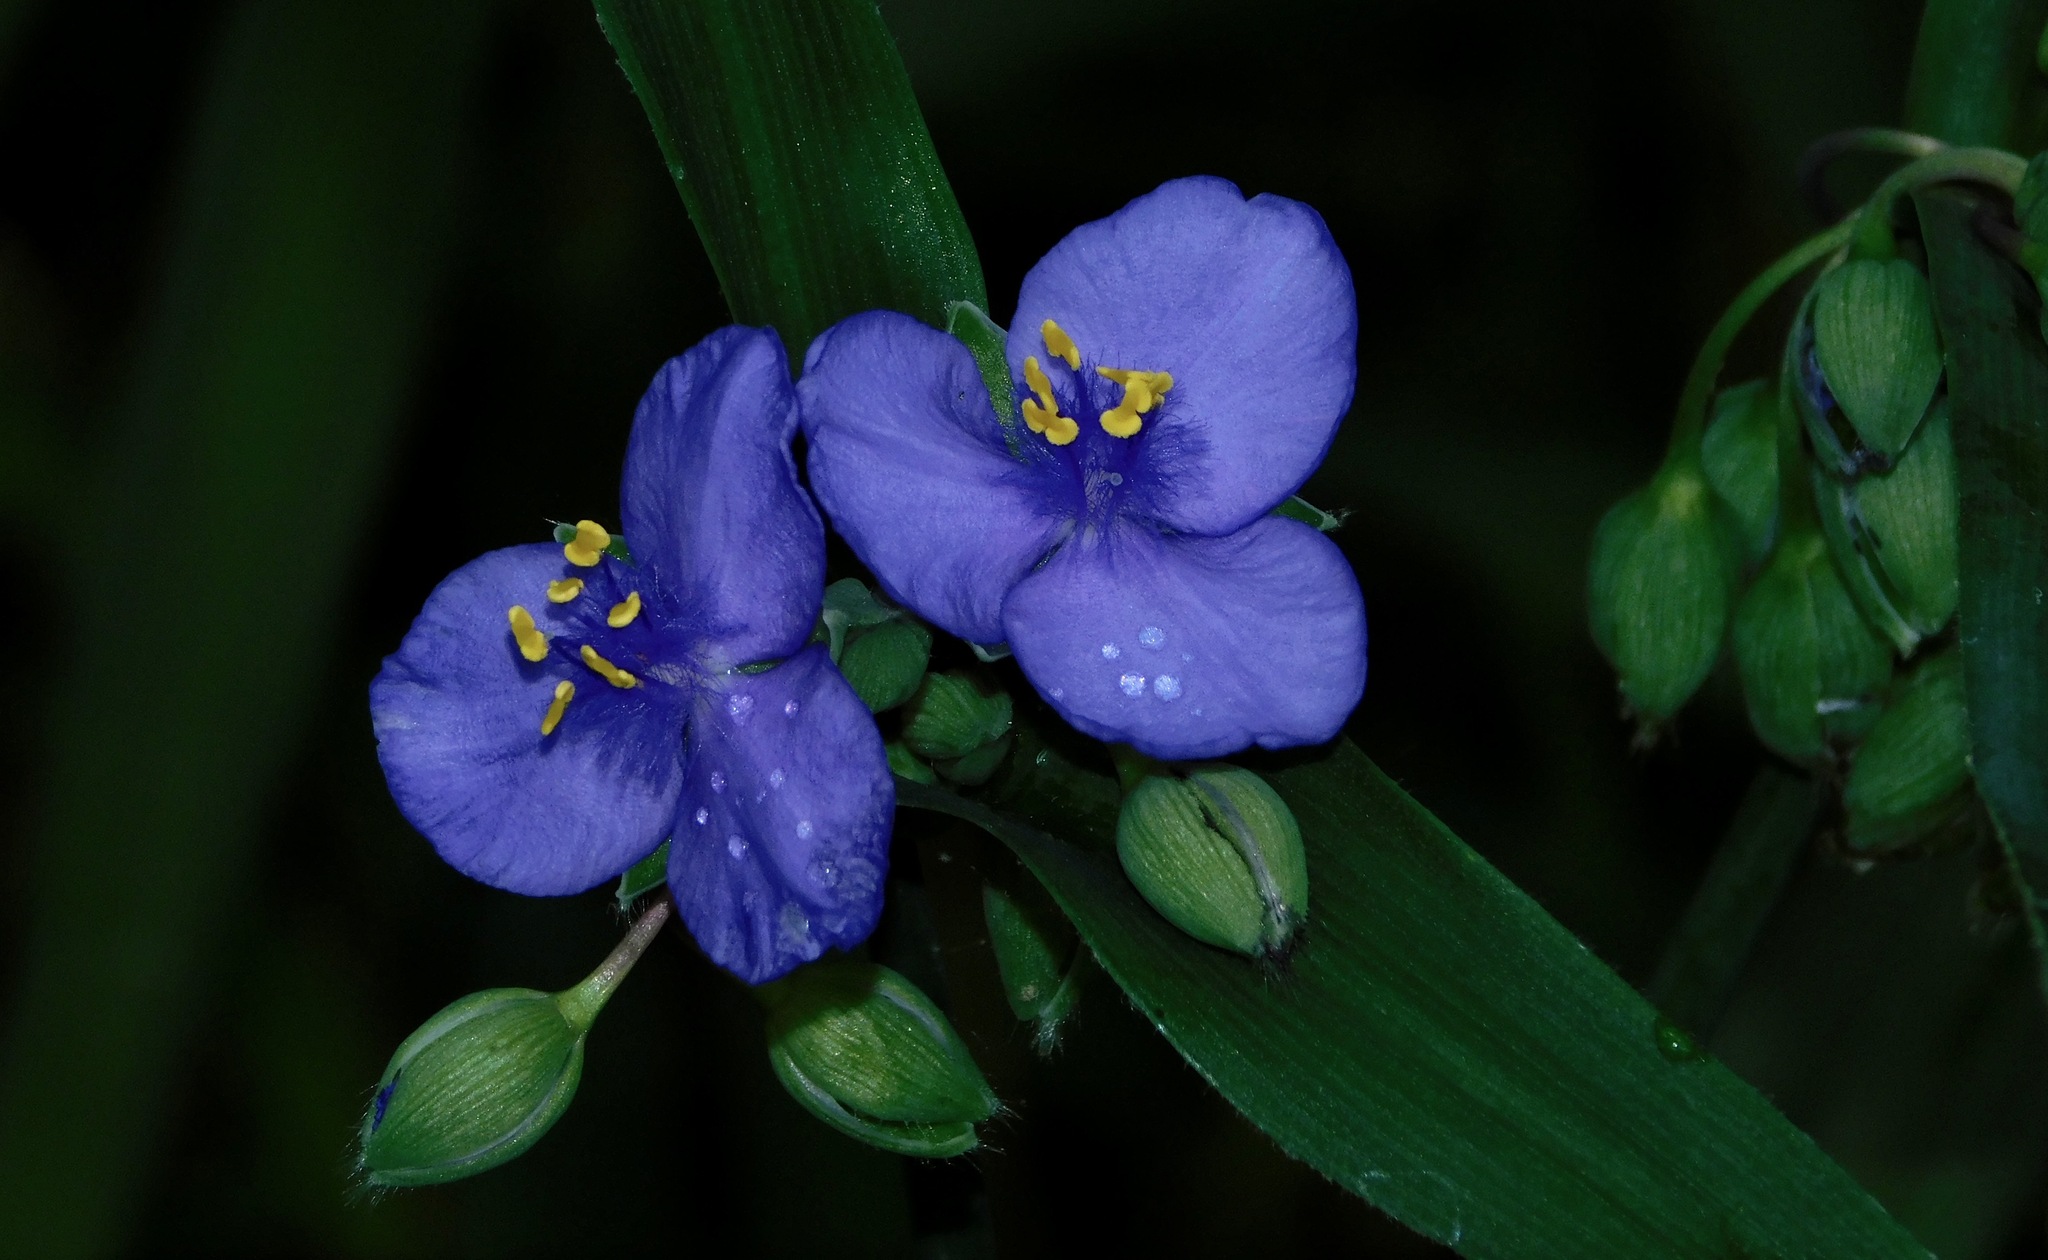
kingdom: Plantae
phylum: Tracheophyta
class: Liliopsida
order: Commelinales
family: Commelinaceae
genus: Tradescantia
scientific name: Tradescantia ohiensis
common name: Ohio spiderwort
